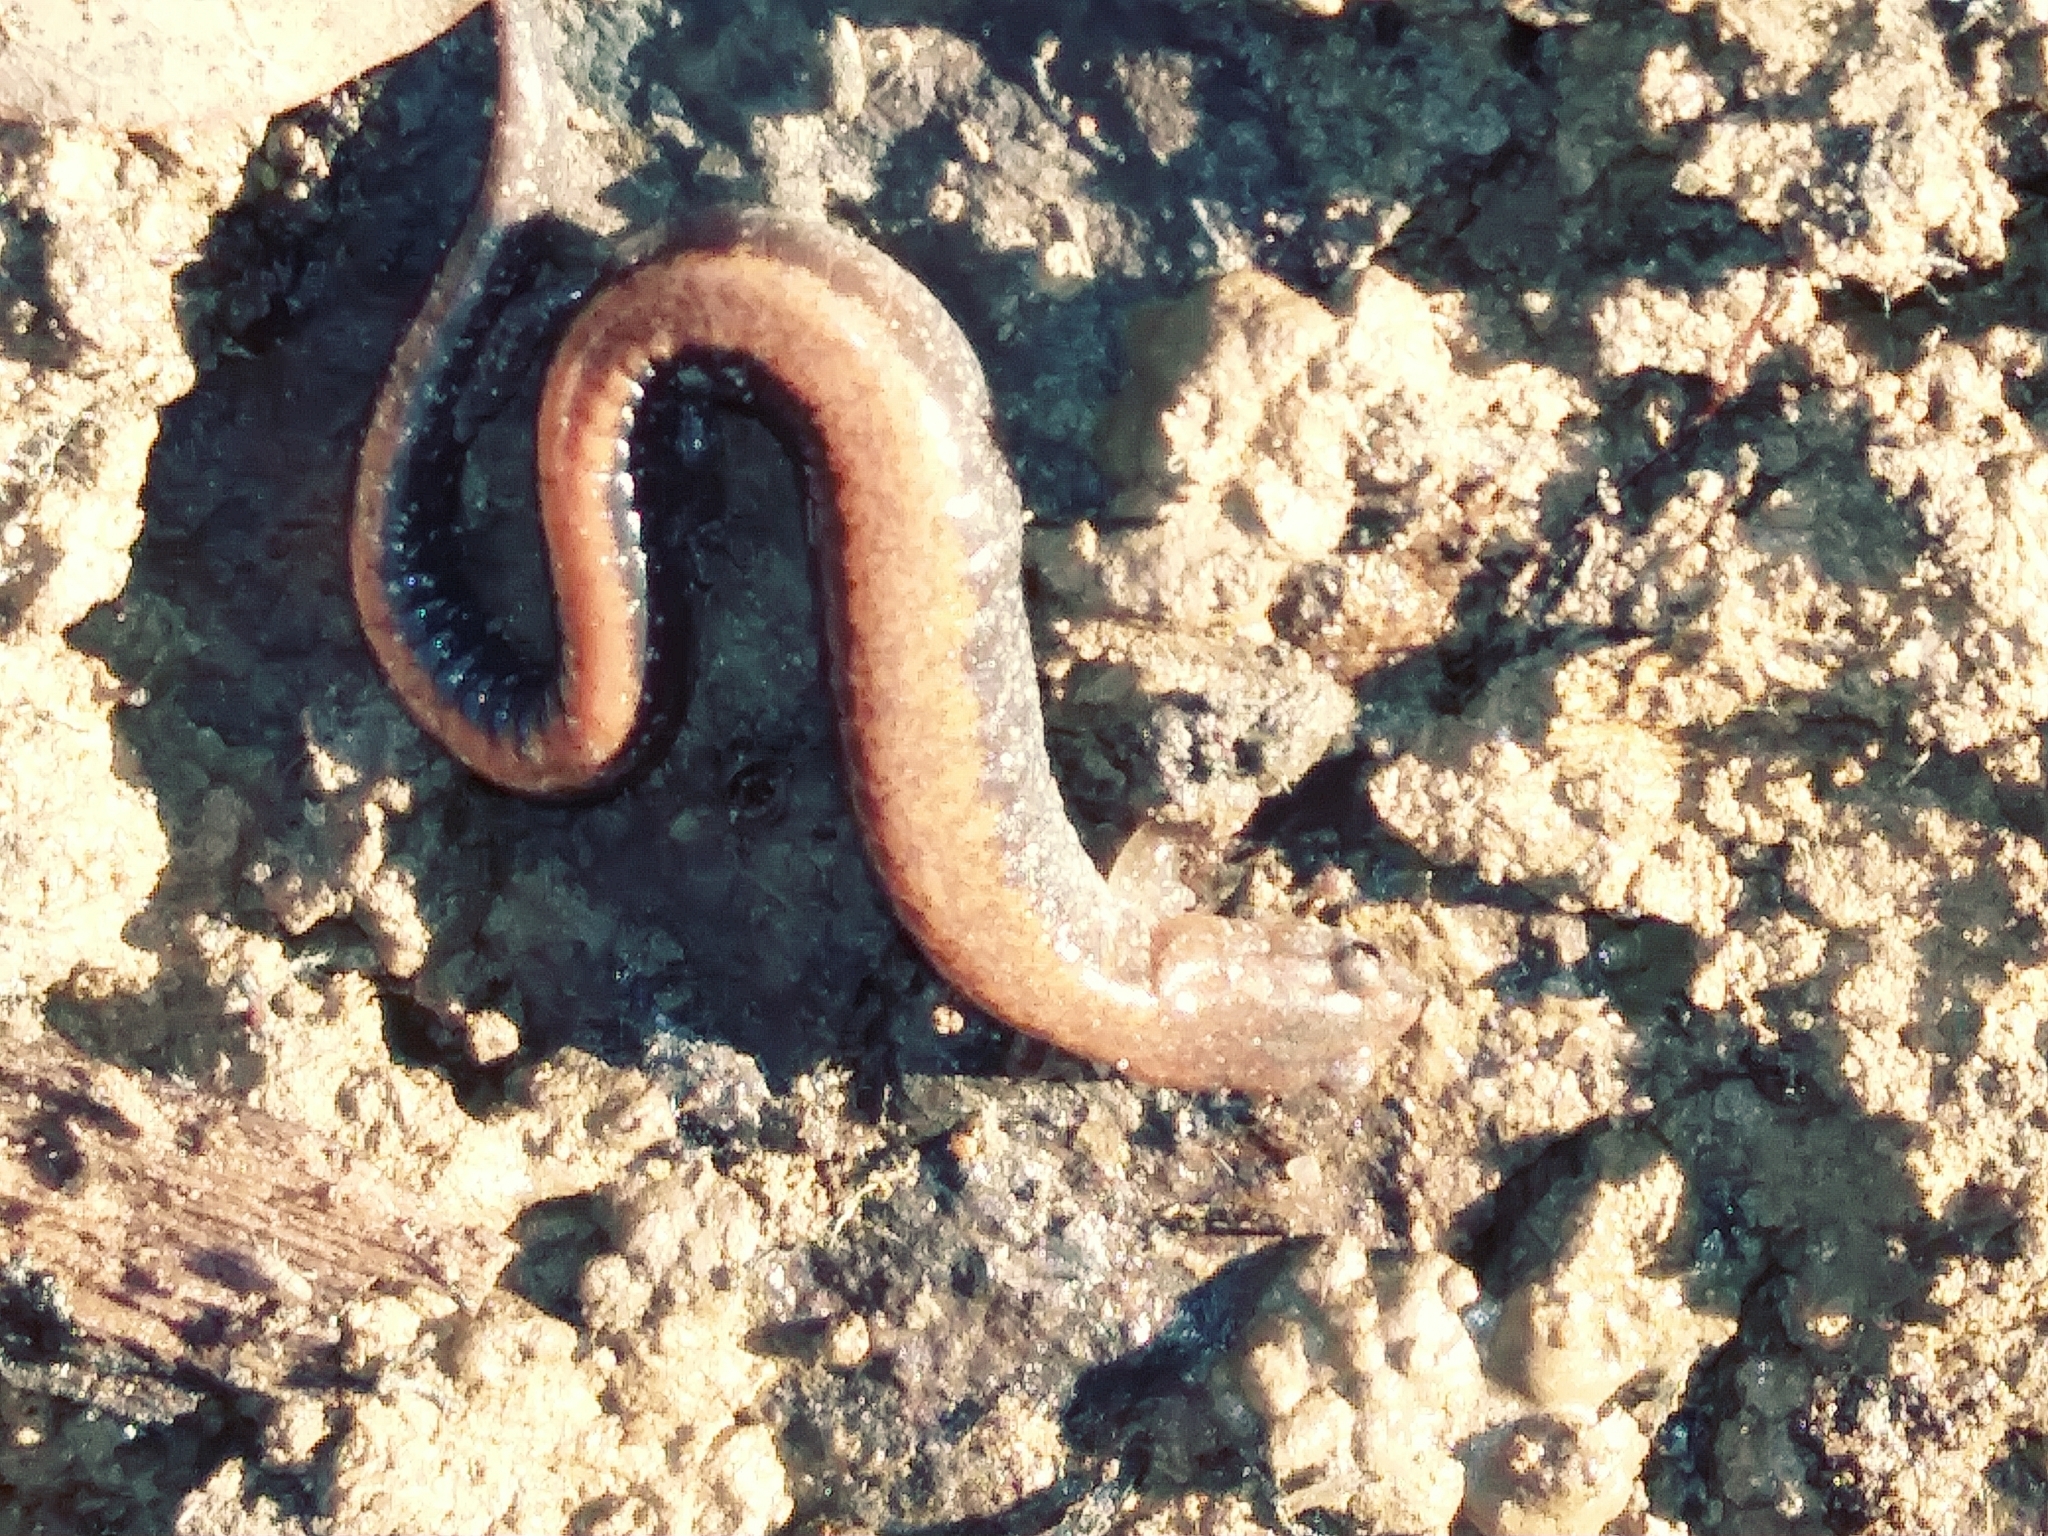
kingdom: Animalia
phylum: Chordata
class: Amphibia
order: Caudata
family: Plethodontidae
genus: Plethodon
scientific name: Plethodon cinereus
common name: Redback salamander
